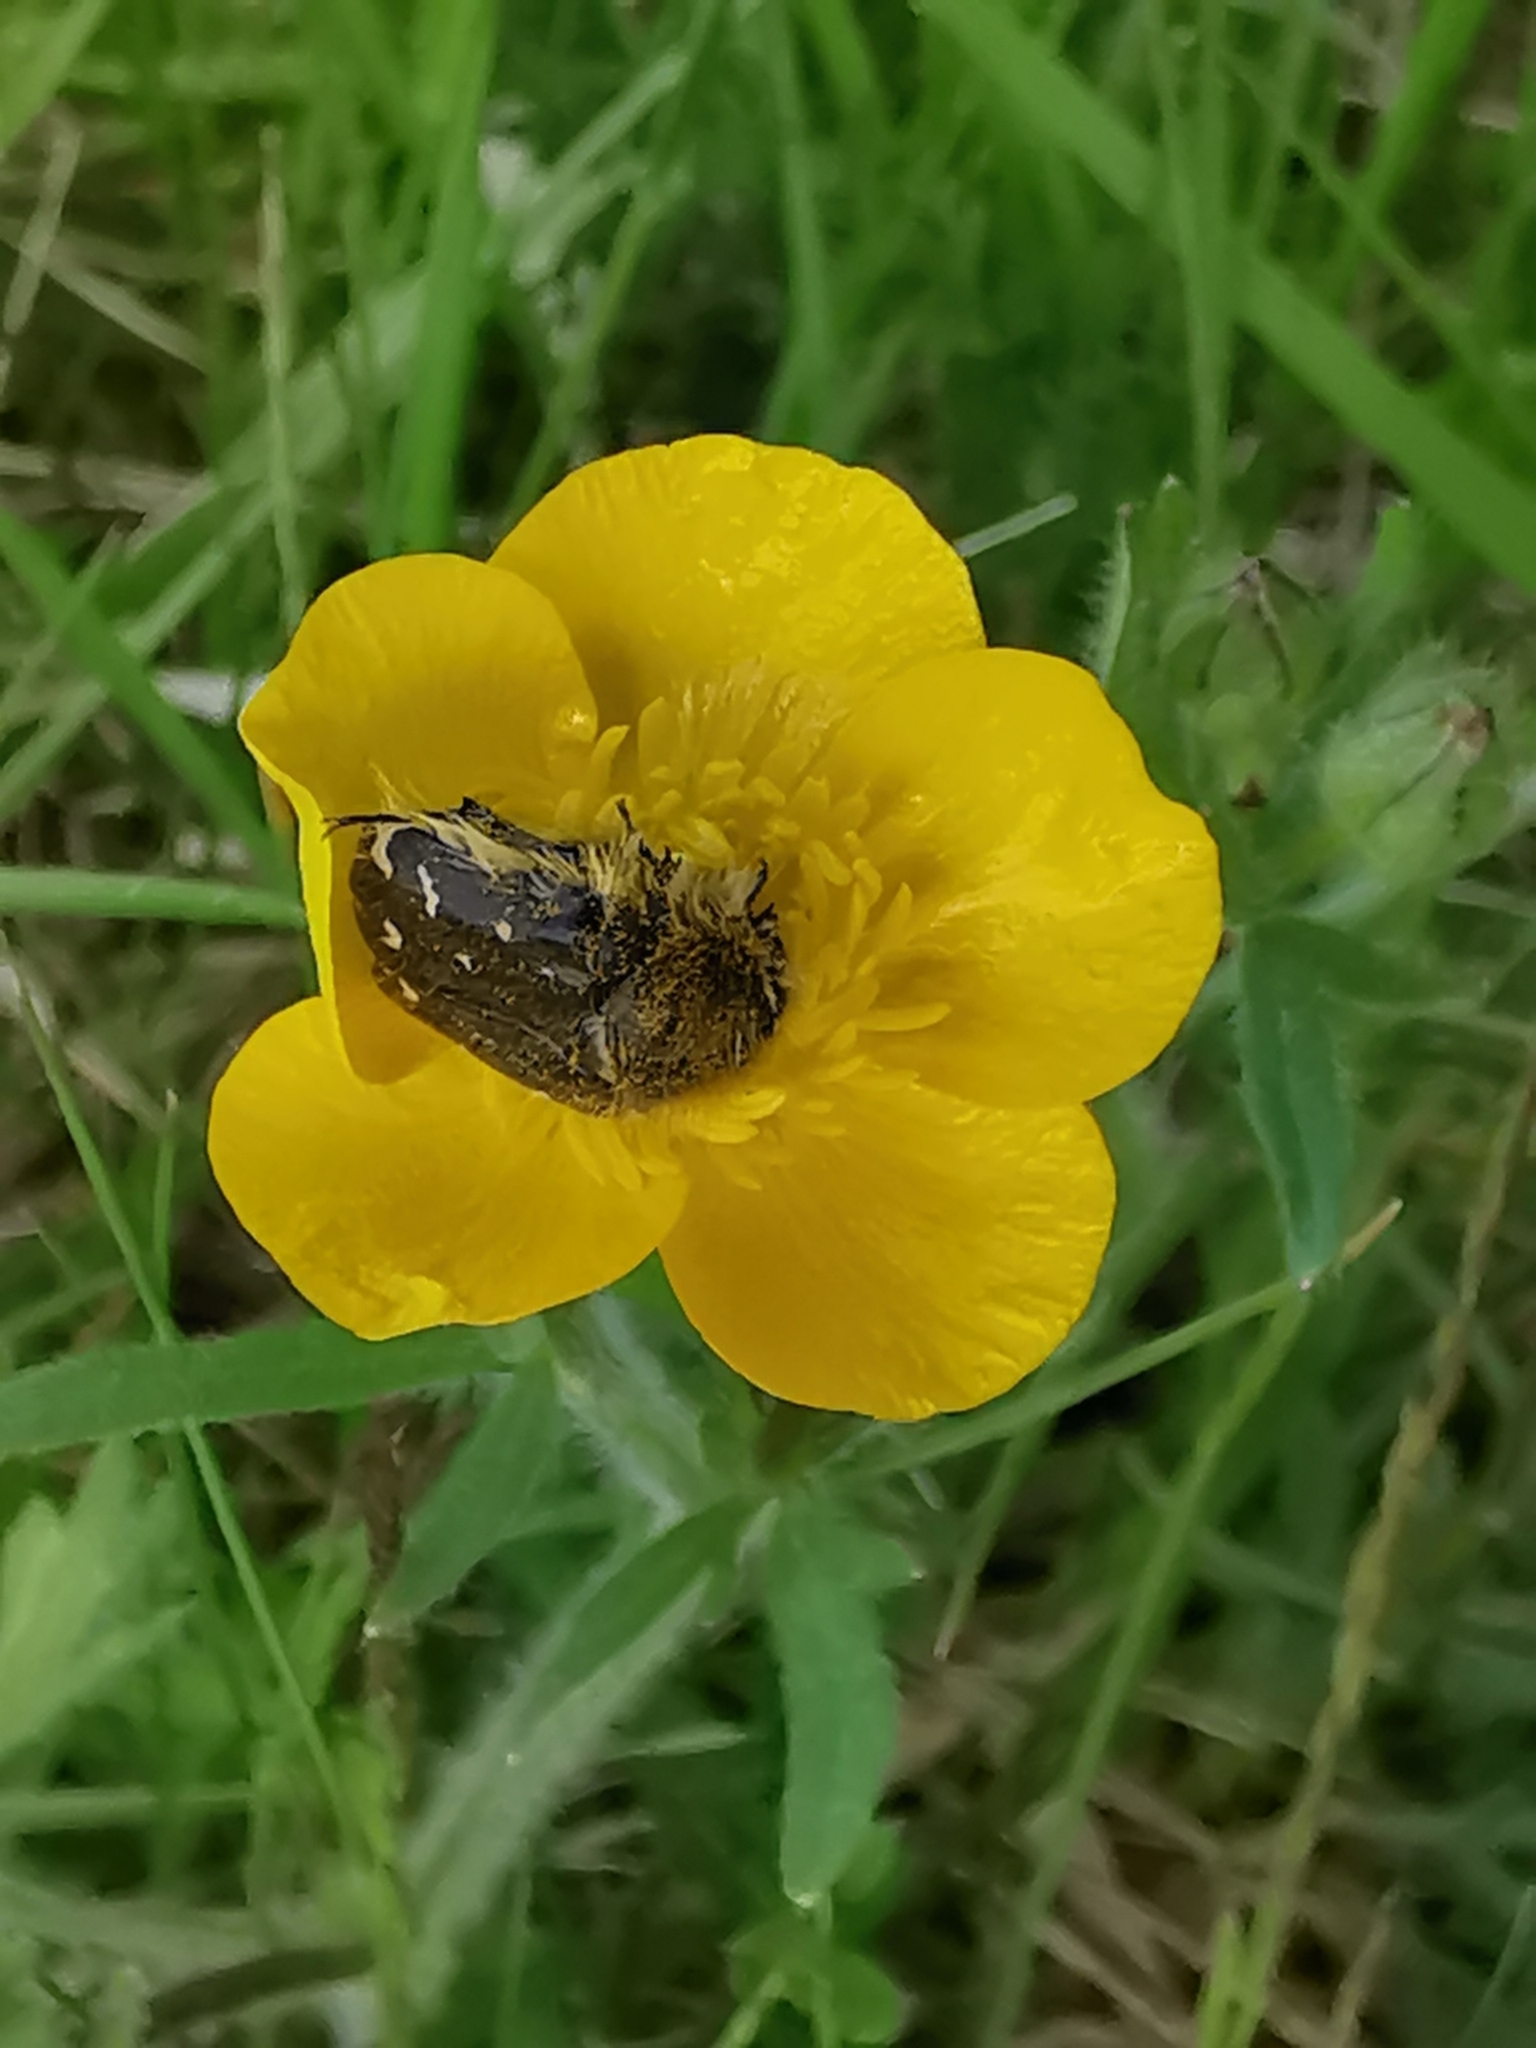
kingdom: Animalia
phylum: Arthropoda
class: Insecta
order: Coleoptera
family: Scarabaeidae
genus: Tropinota
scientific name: Tropinota hirta
